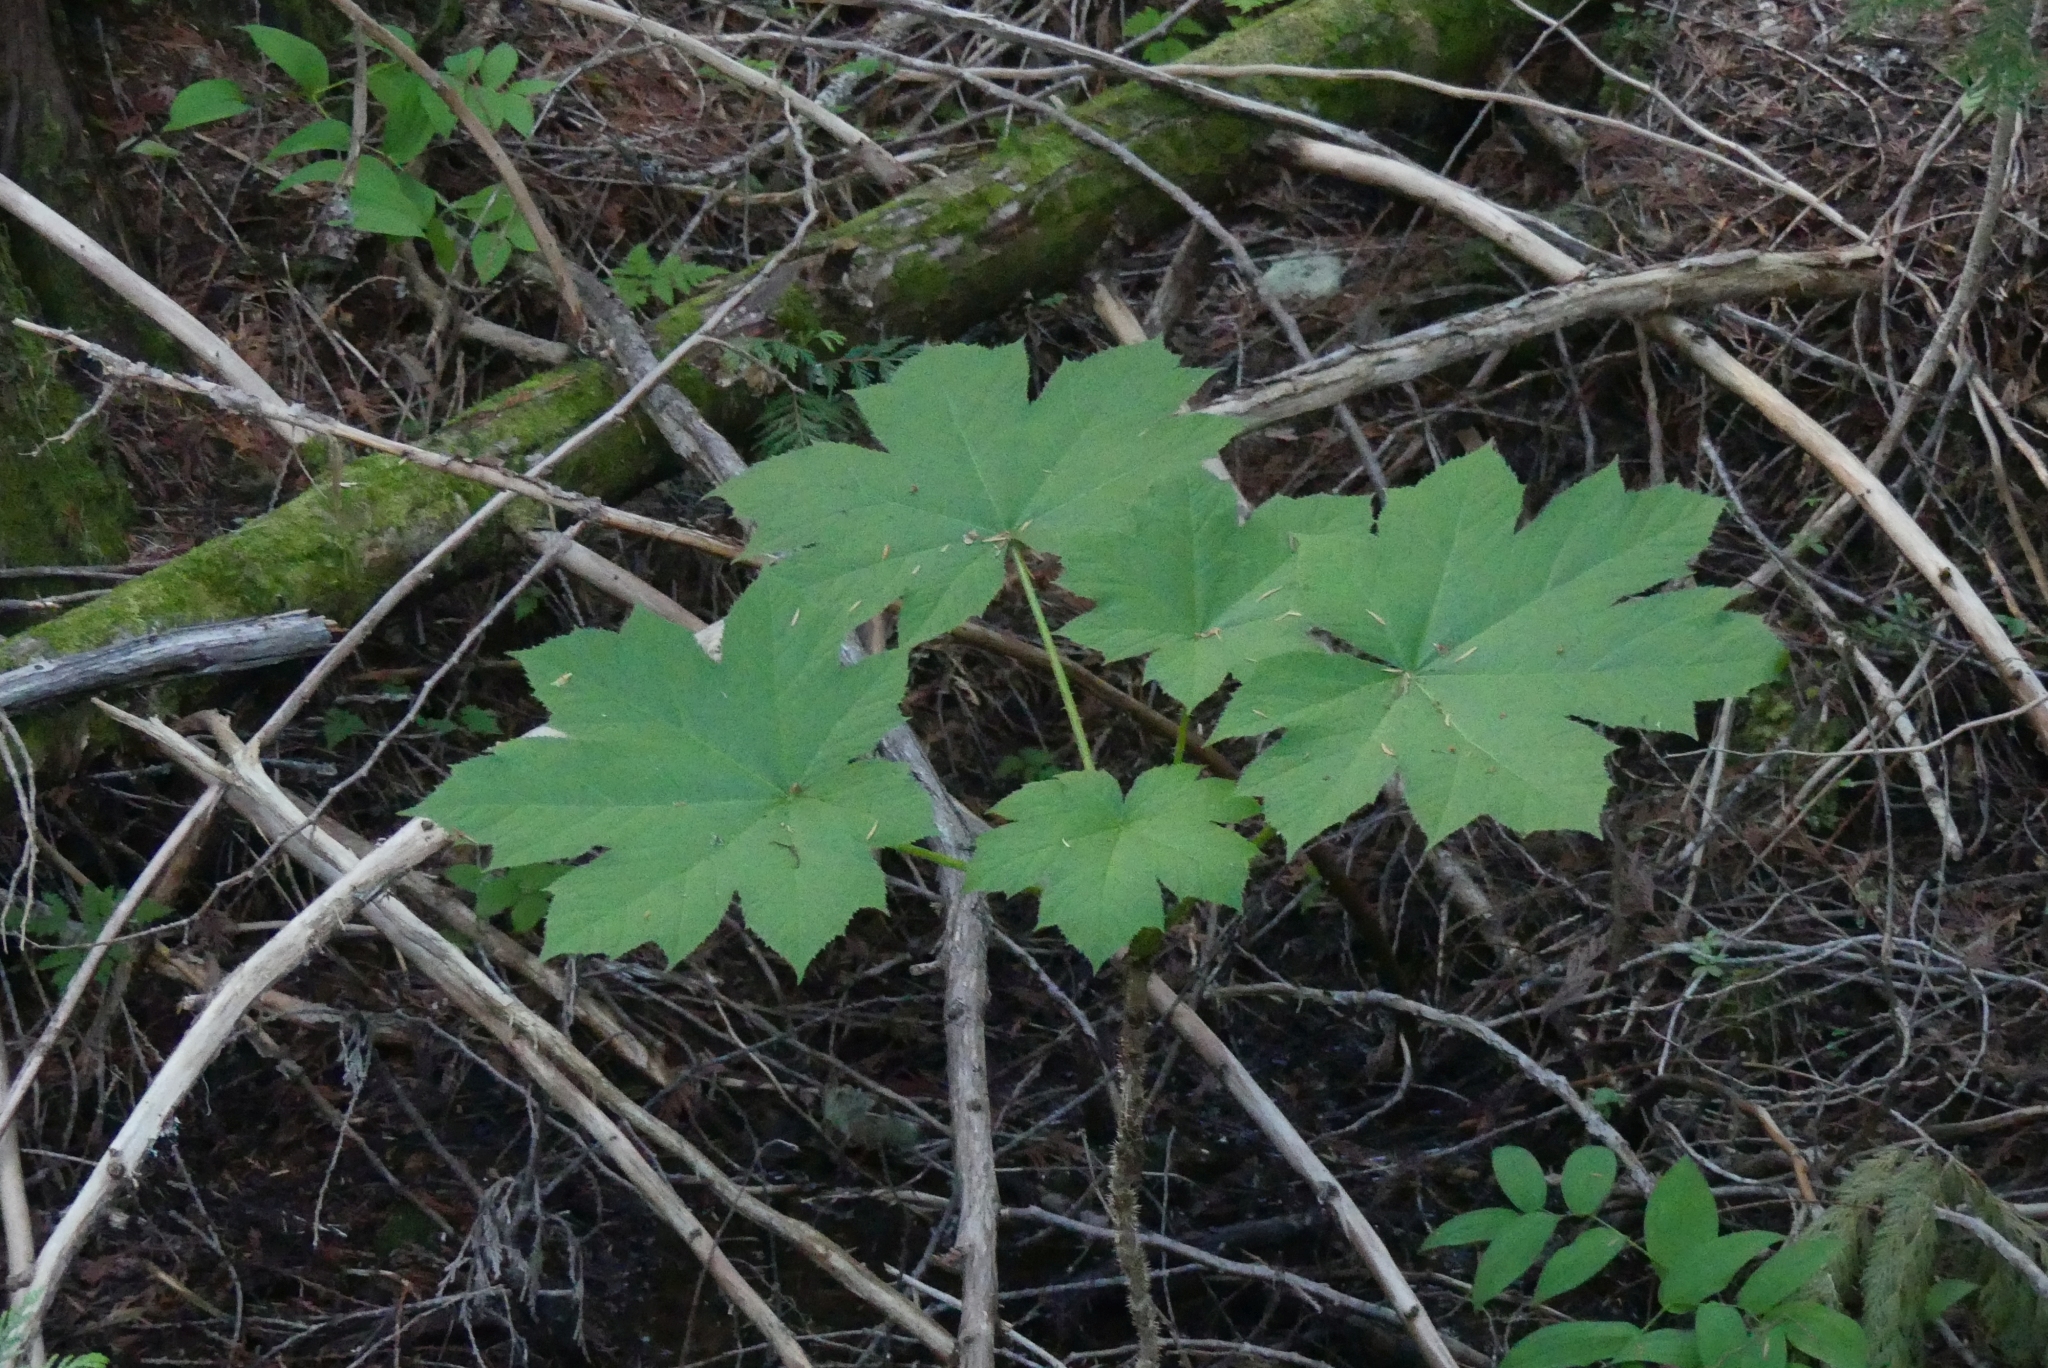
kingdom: Plantae
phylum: Tracheophyta
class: Magnoliopsida
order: Apiales
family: Araliaceae
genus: Oplopanax
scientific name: Oplopanax horridus
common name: Devil's walking-stick
